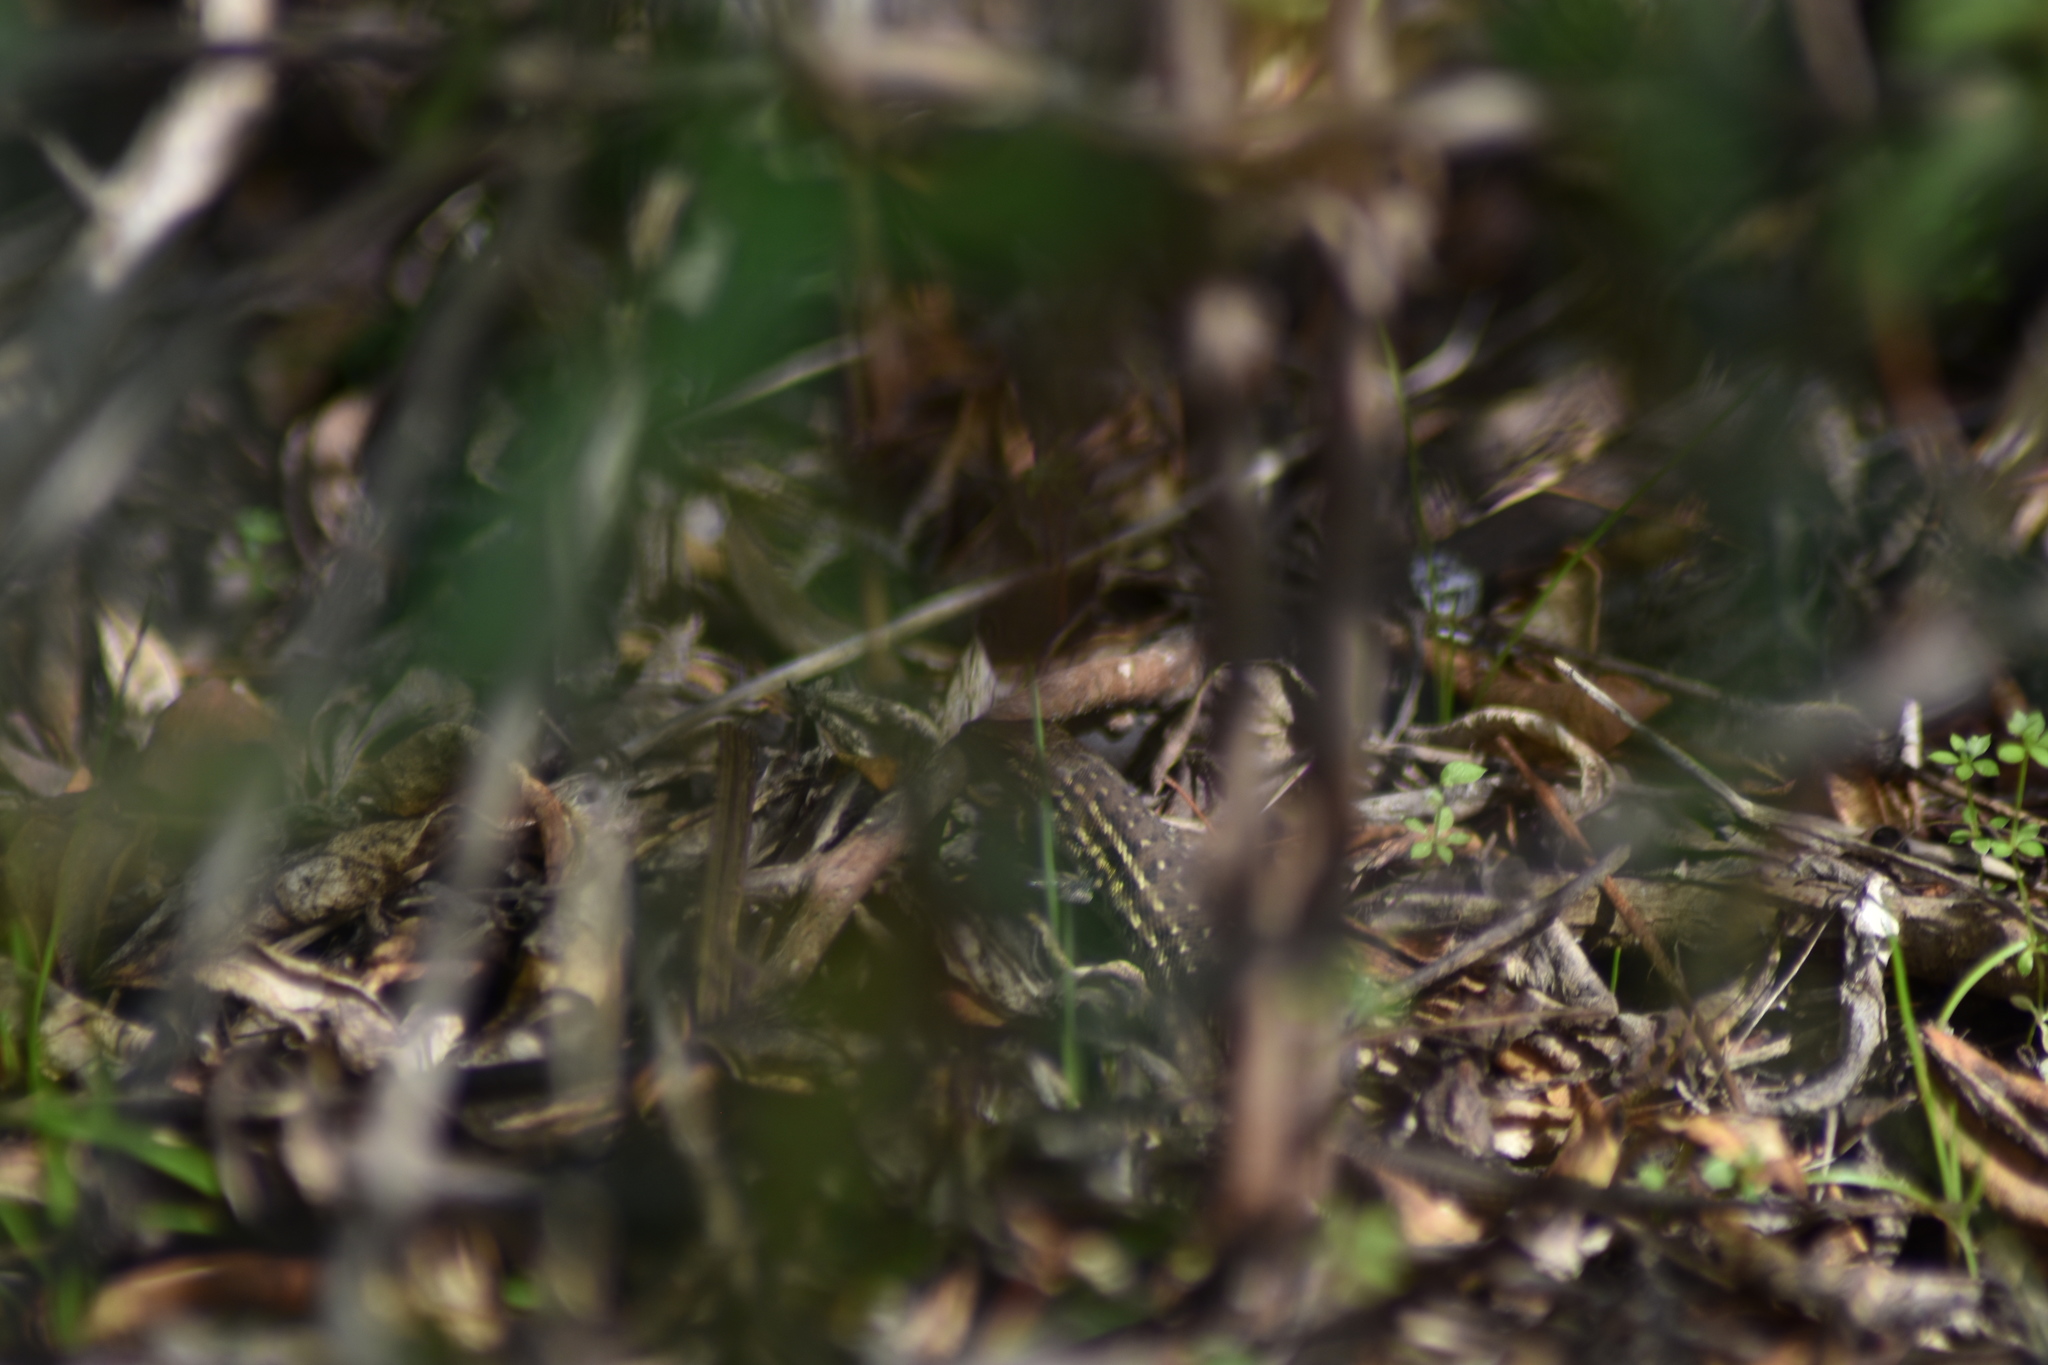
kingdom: Animalia
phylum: Chordata
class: Squamata
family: Lacertidae
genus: Psammodromus
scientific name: Psammodromus occidentalis
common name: Western psammodromus
